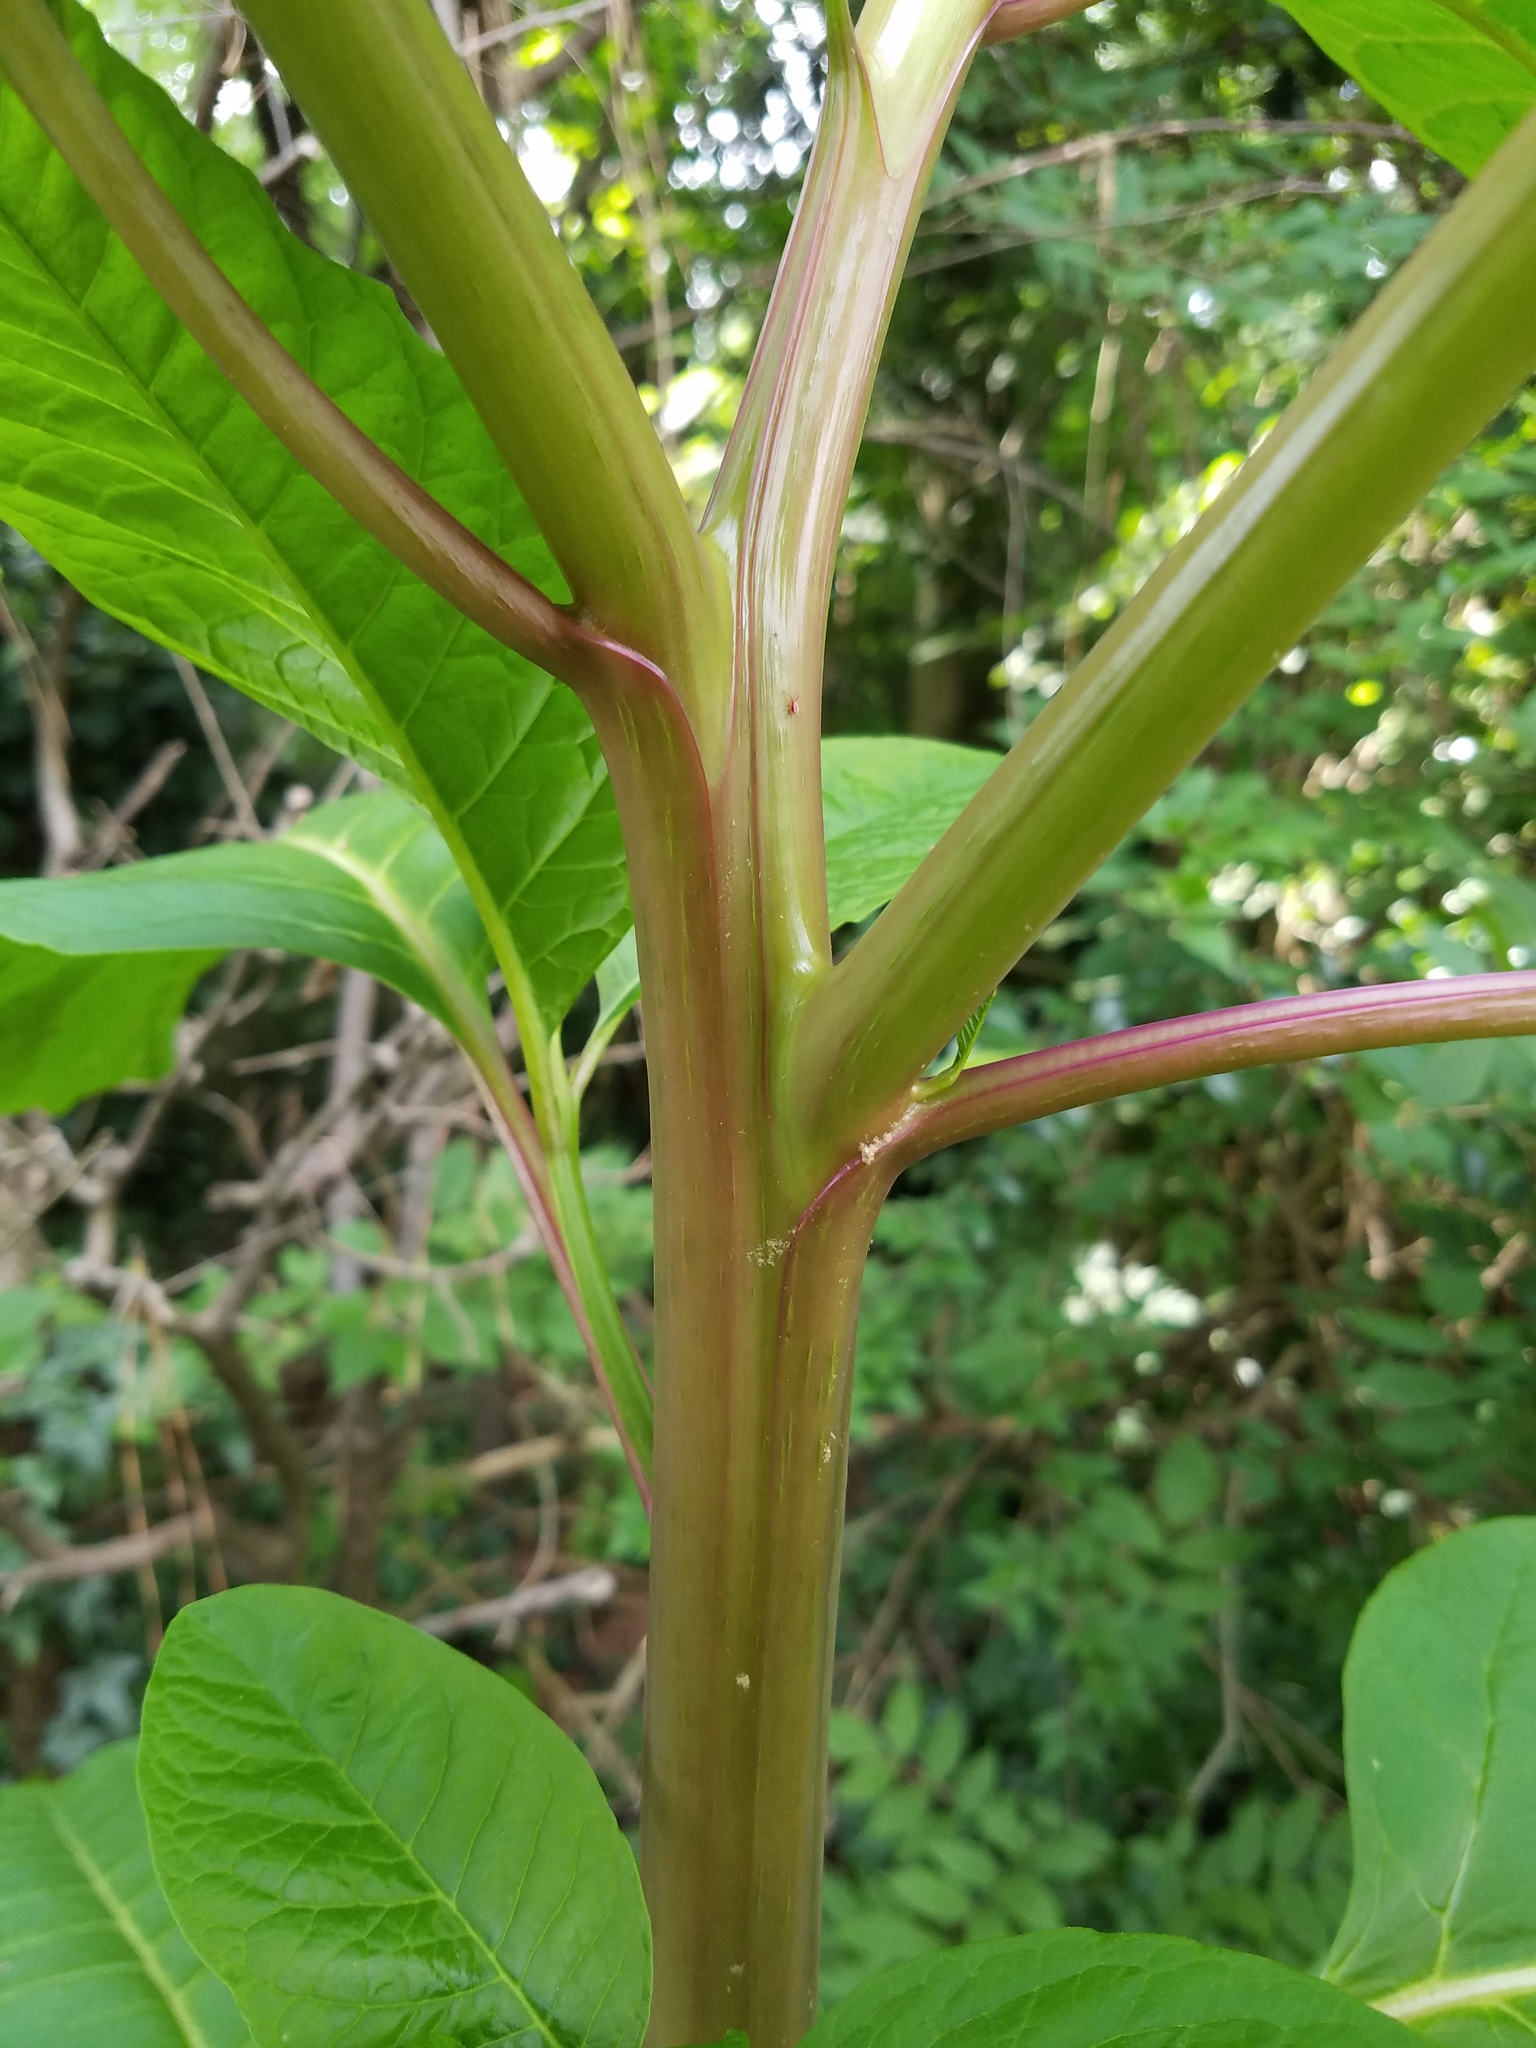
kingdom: Plantae
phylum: Tracheophyta
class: Magnoliopsida
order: Caryophyllales
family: Phytolaccaceae
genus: Phytolacca
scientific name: Phytolacca americana
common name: American pokeweed
